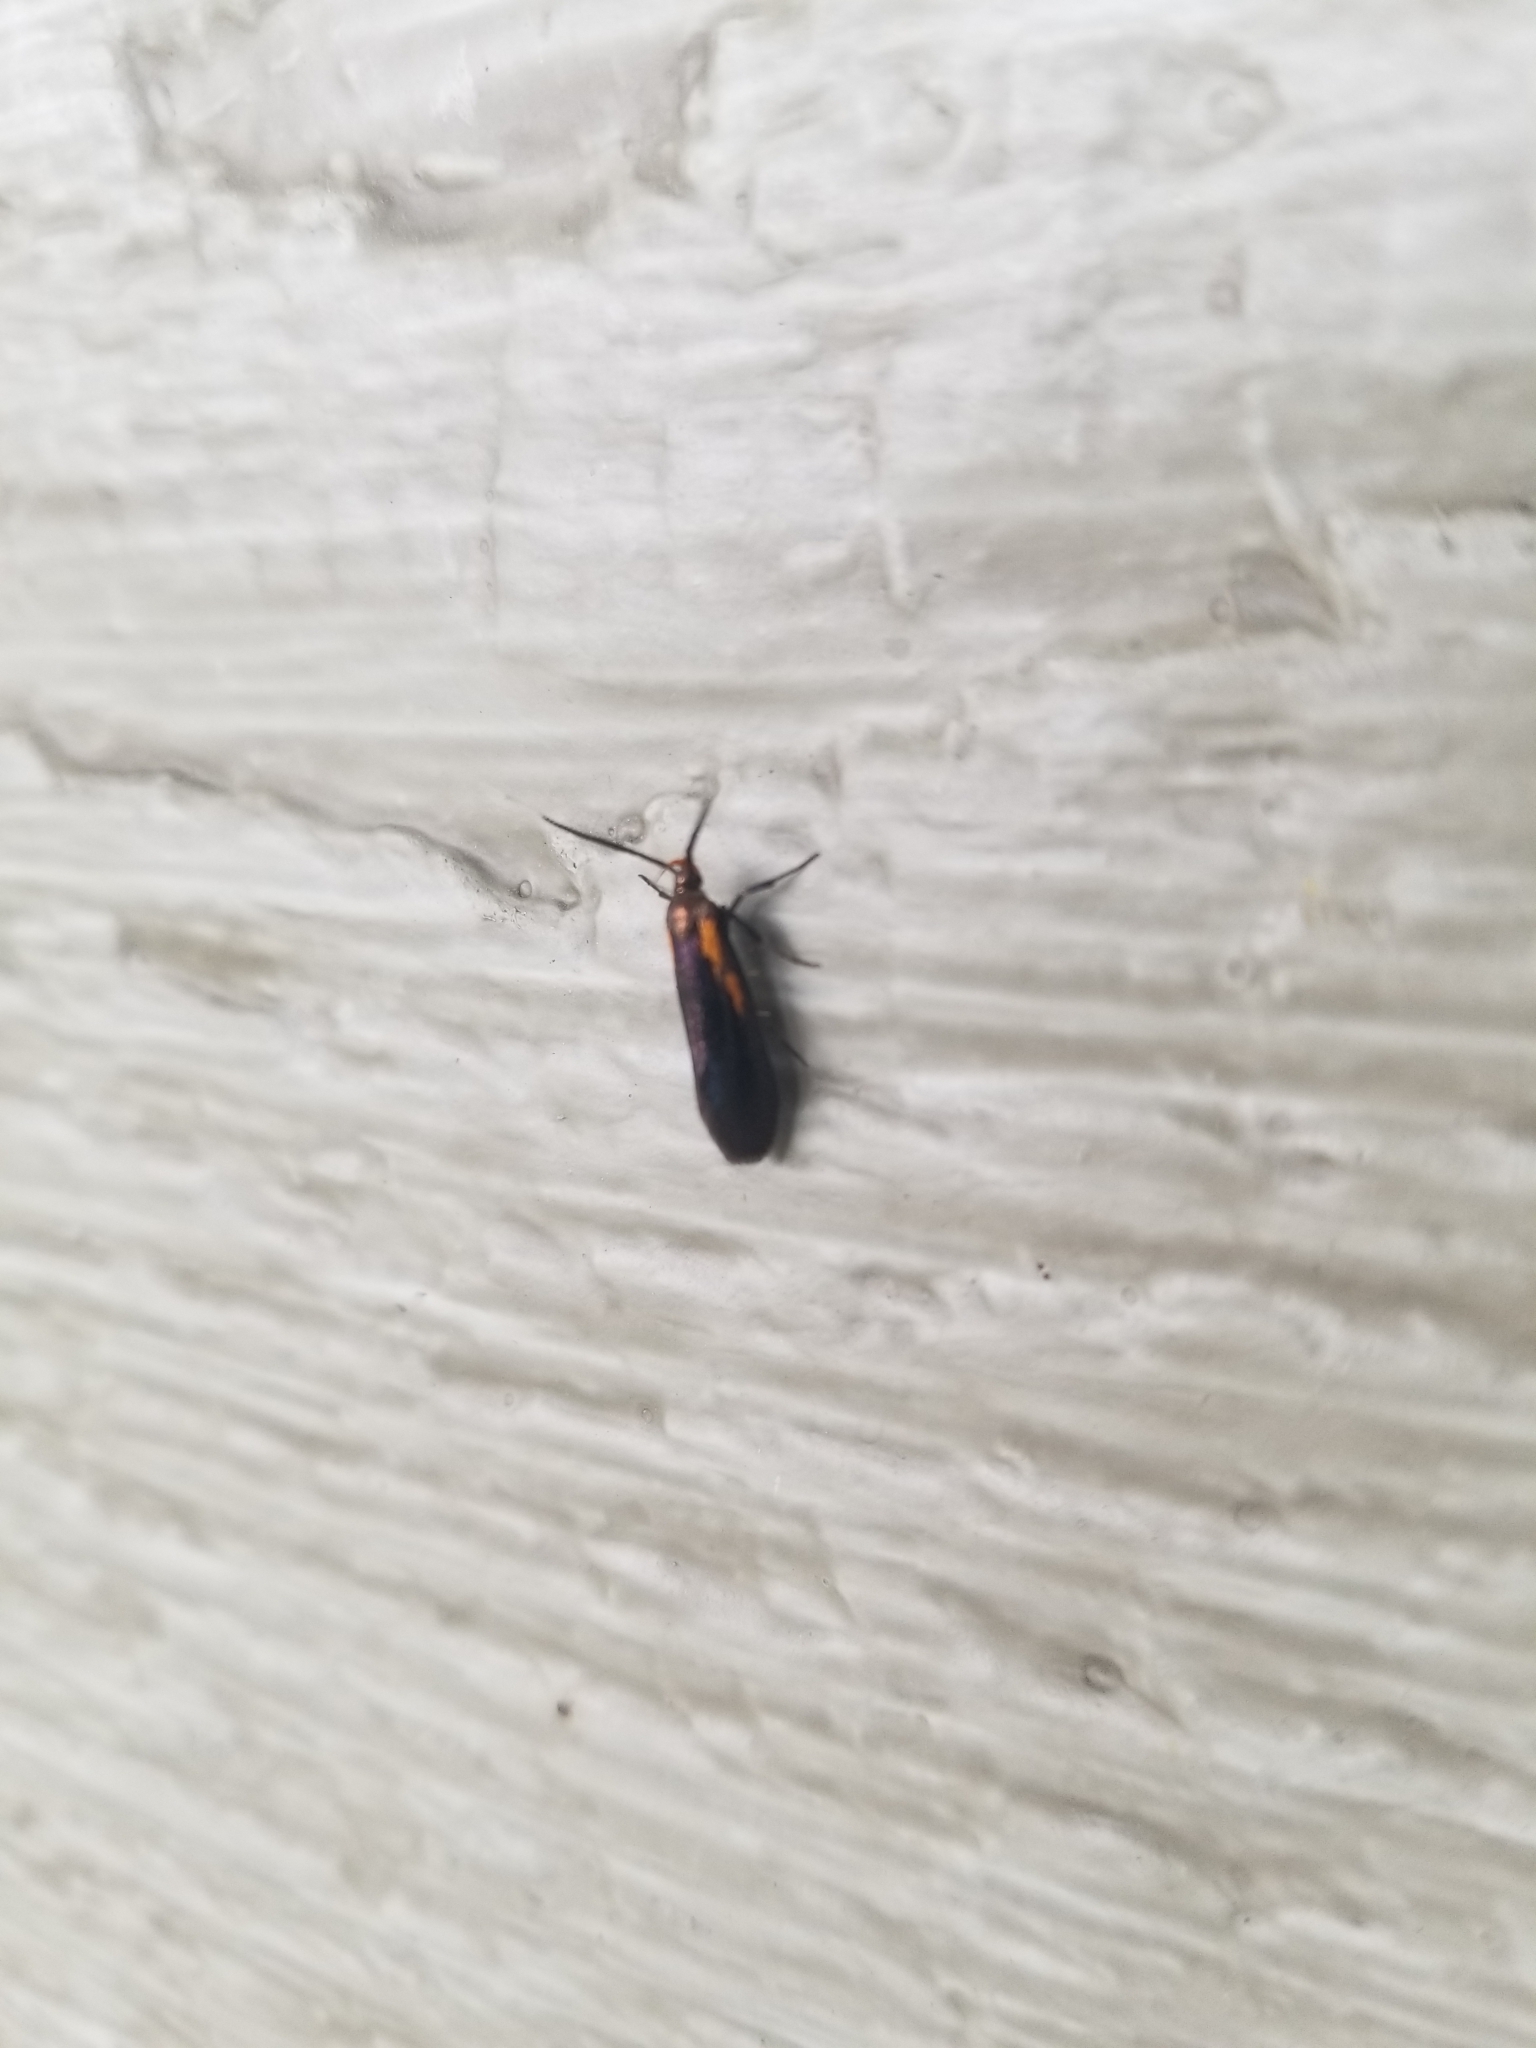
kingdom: Animalia
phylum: Arthropoda
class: Insecta
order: Lepidoptera
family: Oecophoridae
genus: Mathildana
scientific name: Mathildana newmanella
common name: Newman's mathildana moth
